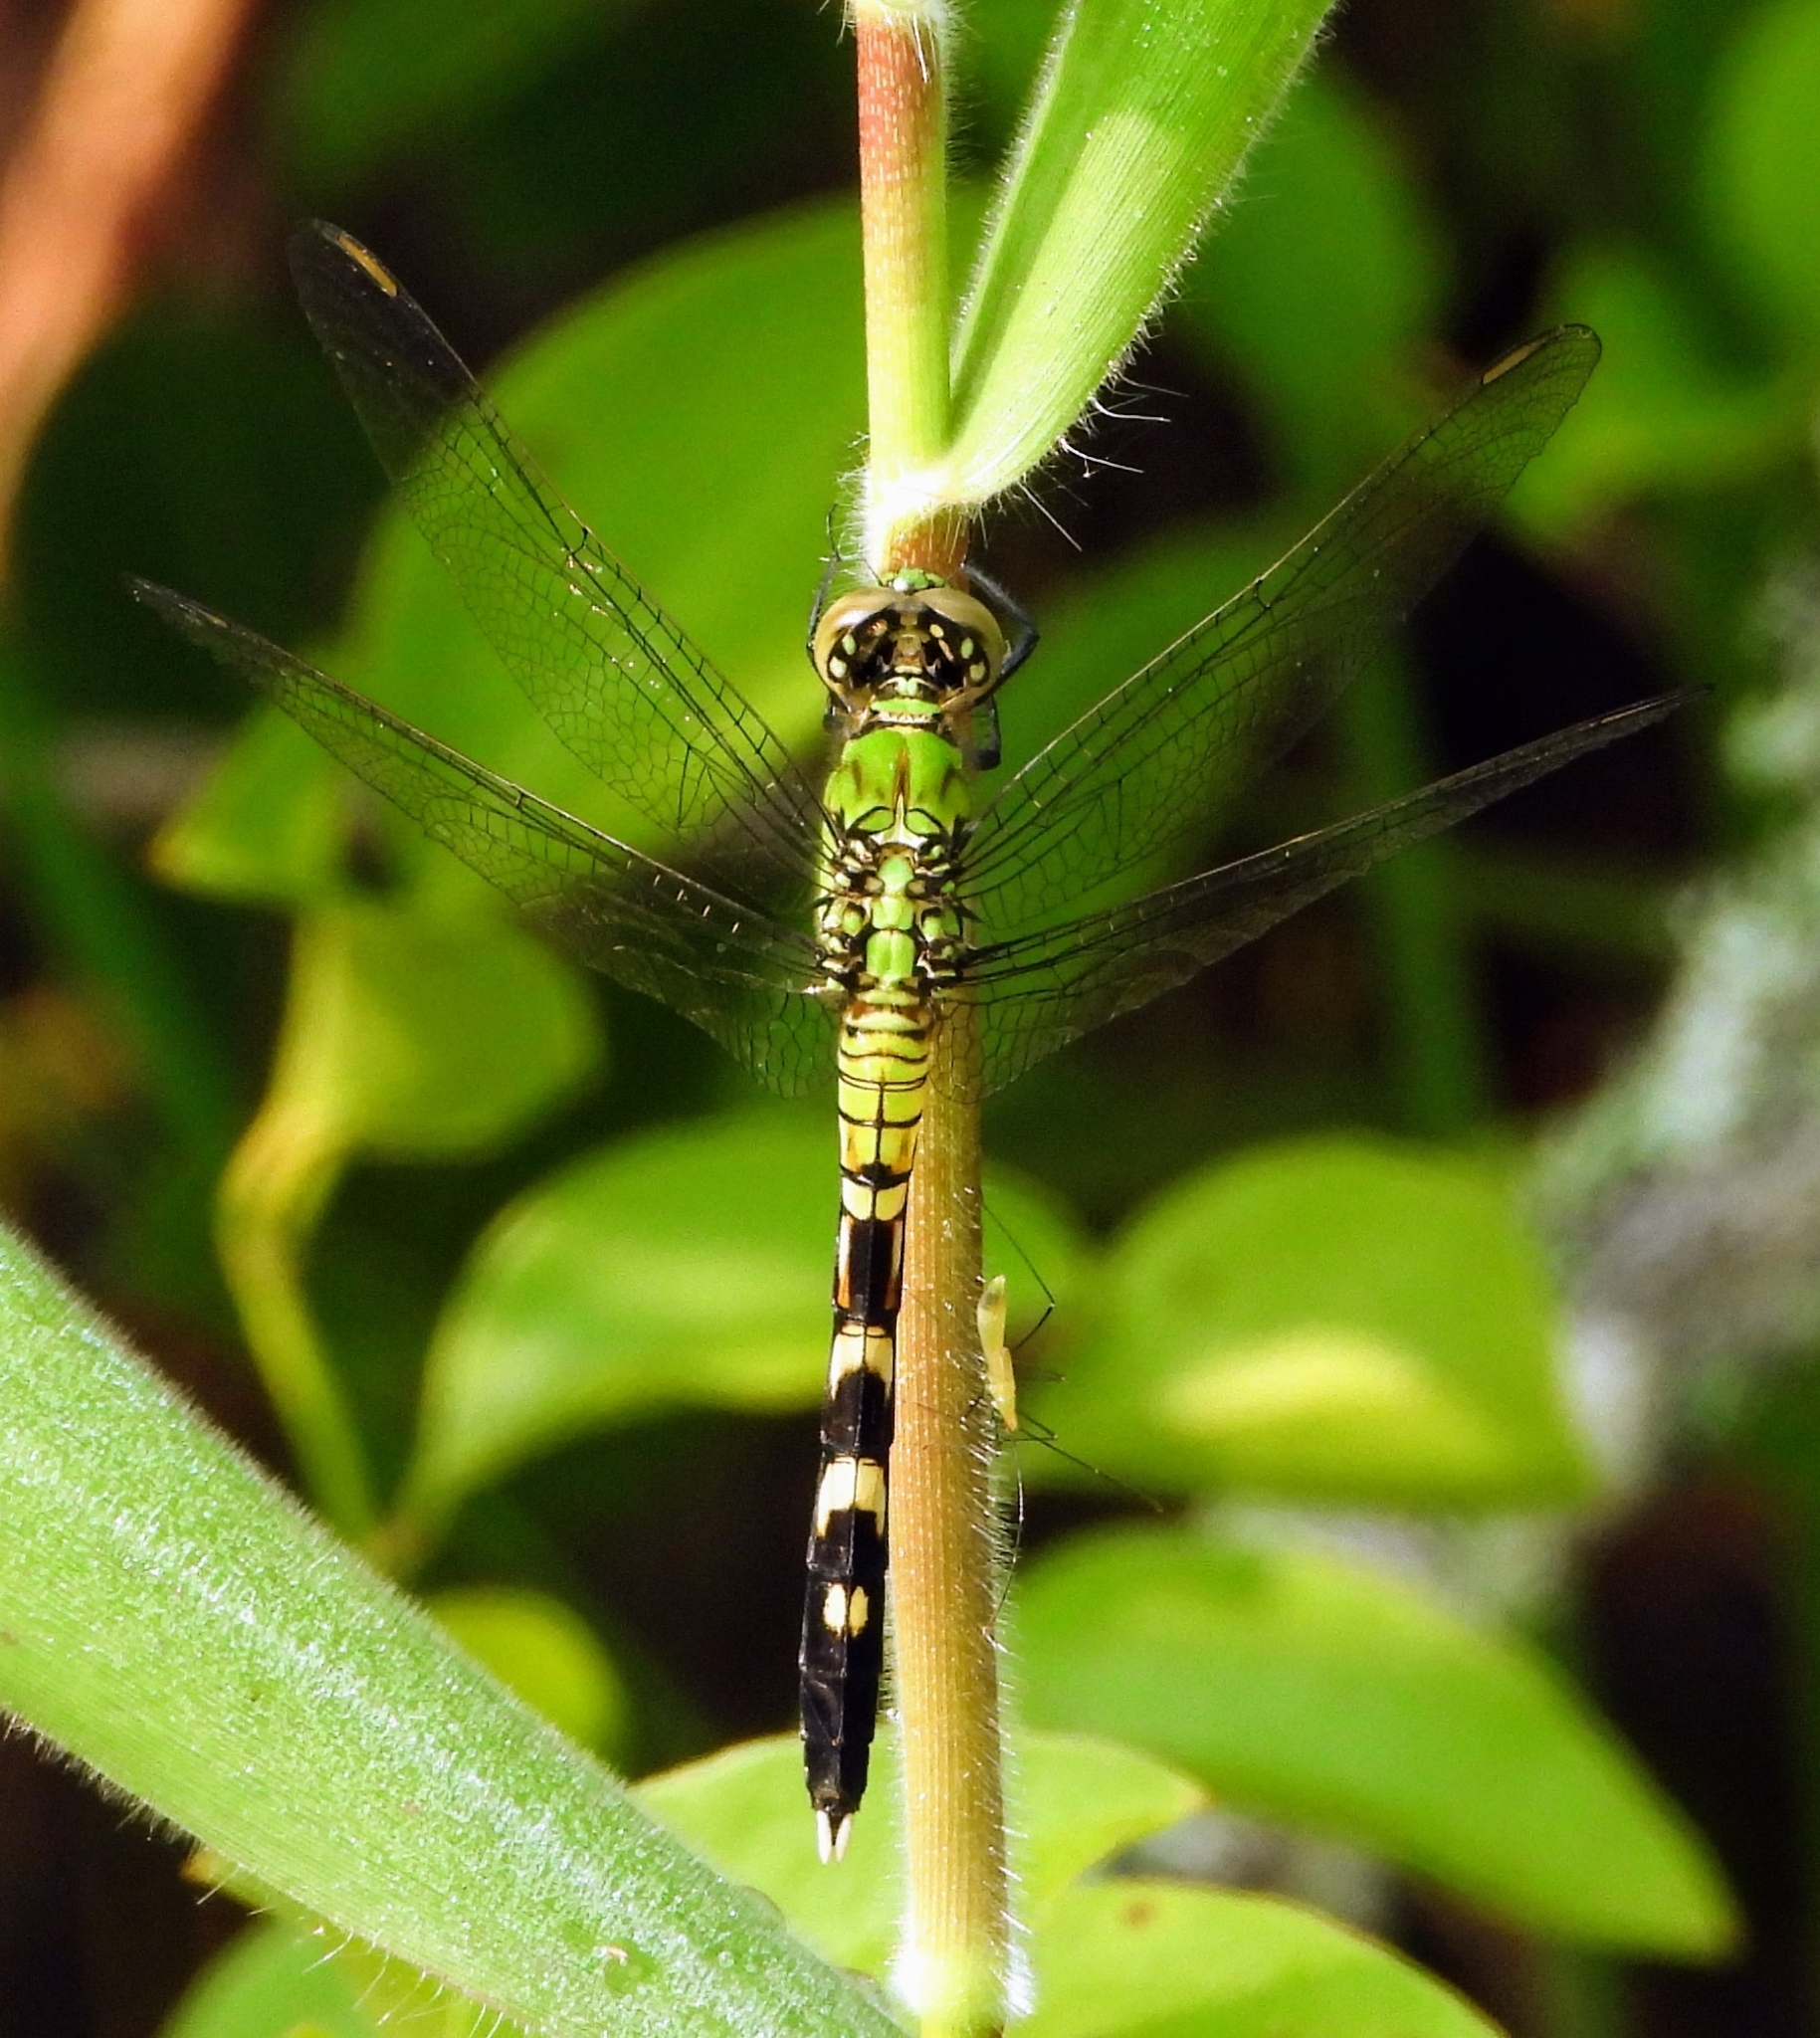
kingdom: Animalia
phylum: Arthropoda
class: Insecta
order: Odonata
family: Libellulidae
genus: Erythemis
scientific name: Erythemis simplicicollis
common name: Eastern pondhawk
